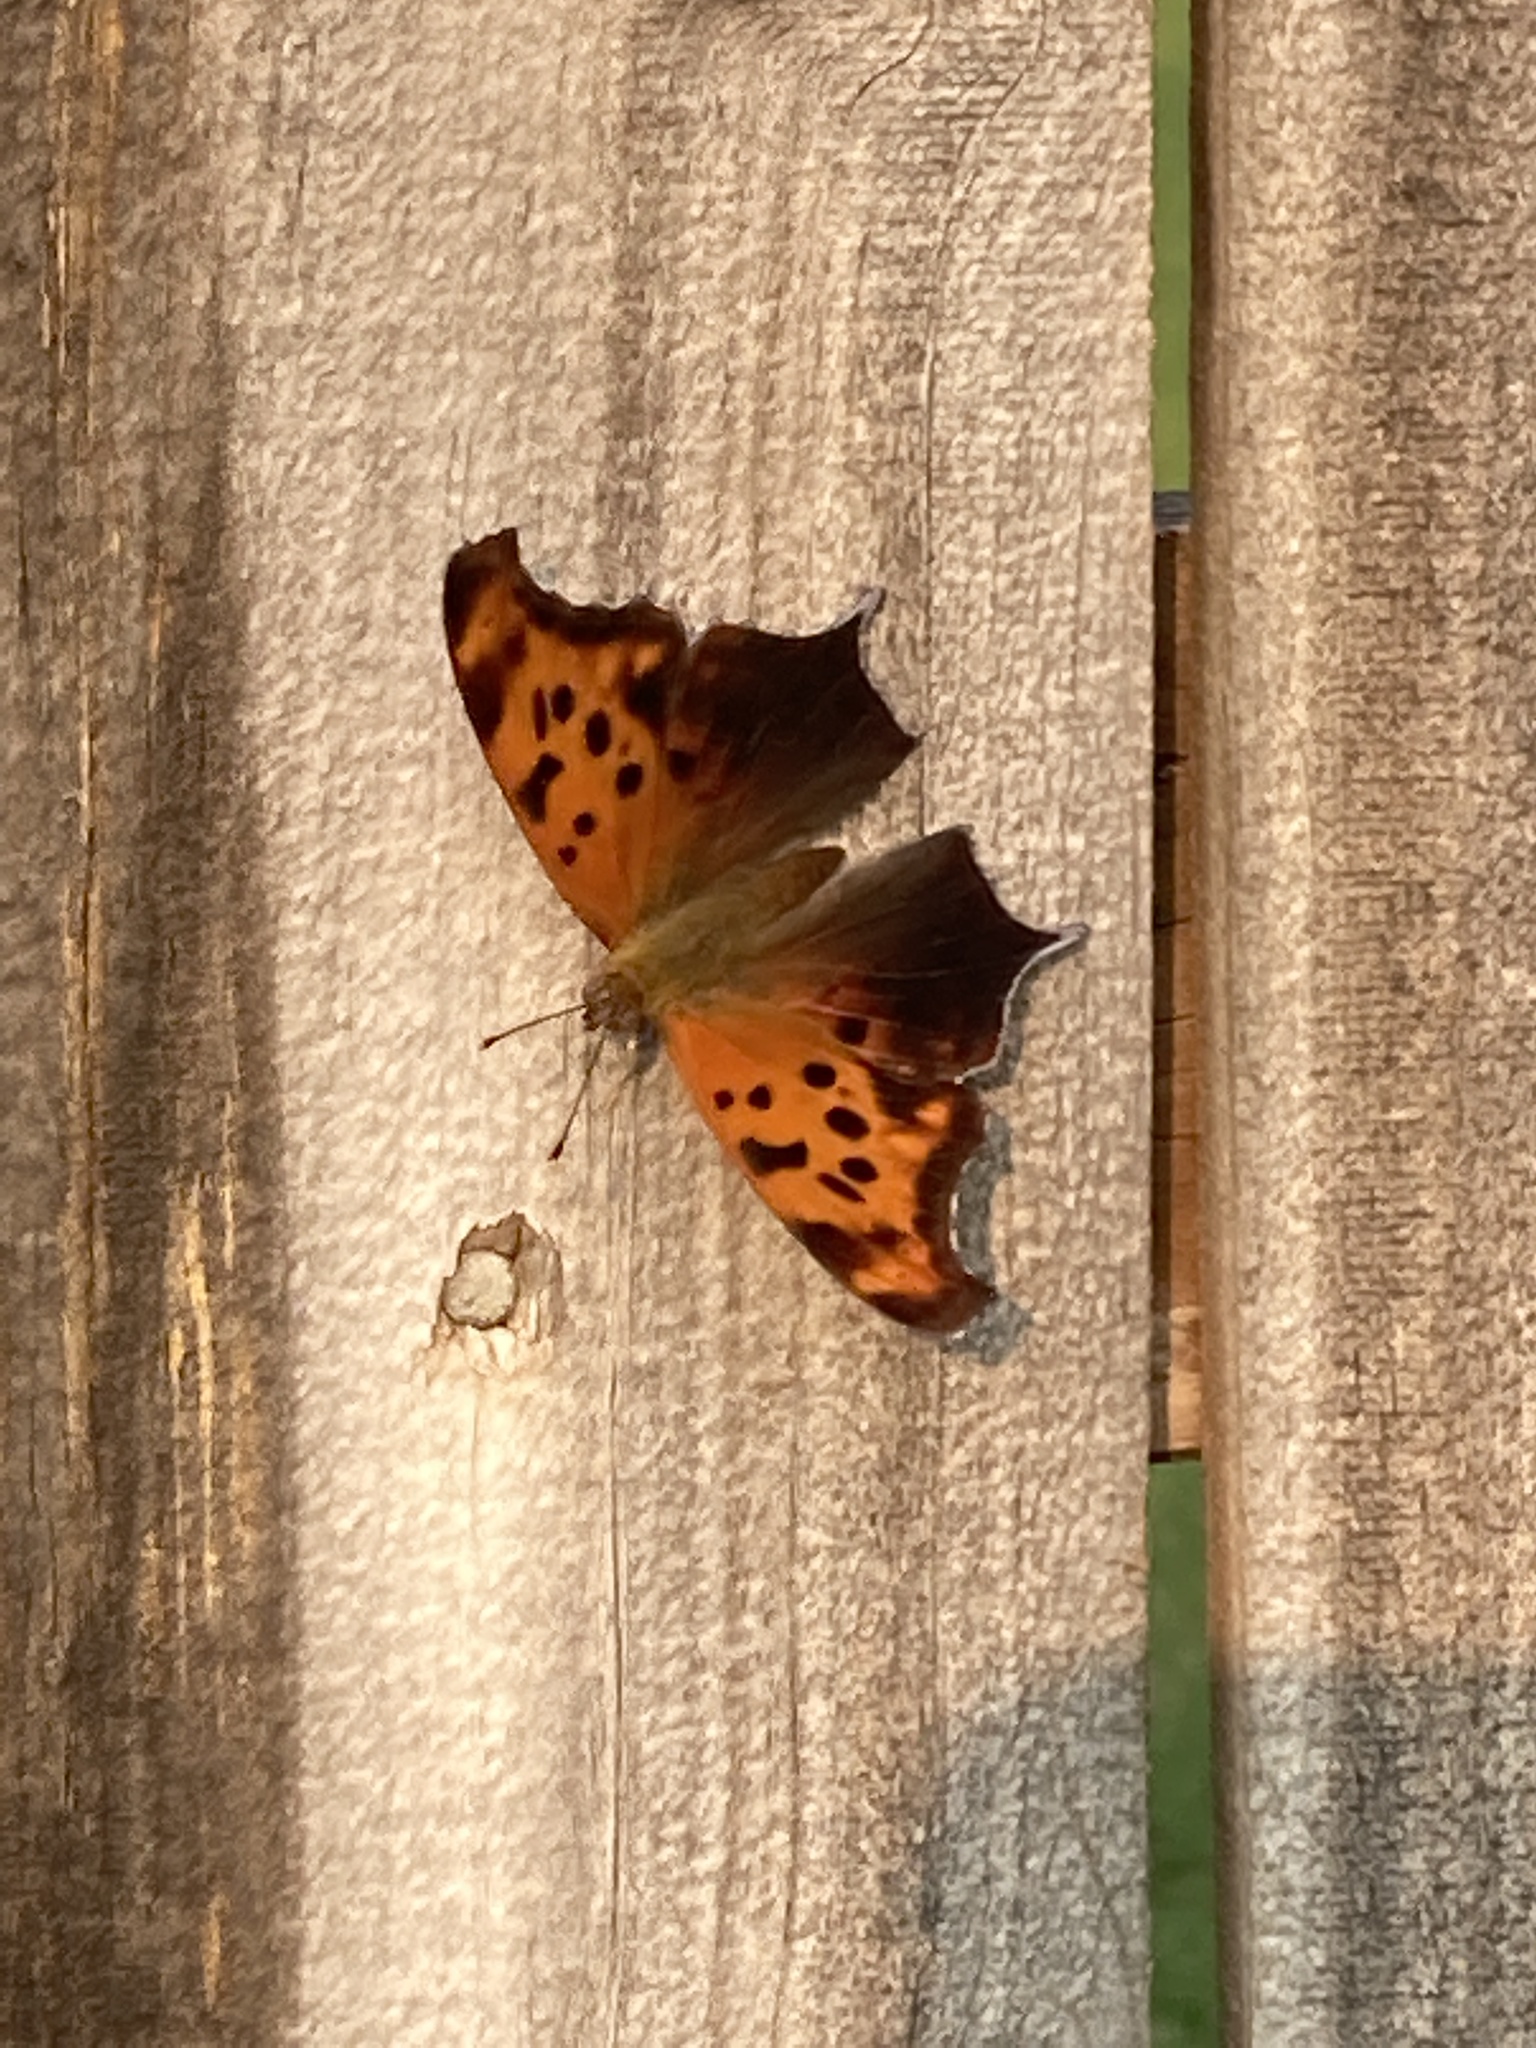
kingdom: Animalia
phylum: Arthropoda
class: Insecta
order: Lepidoptera
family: Nymphalidae
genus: Polygonia
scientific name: Polygonia interrogationis
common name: Question mark
